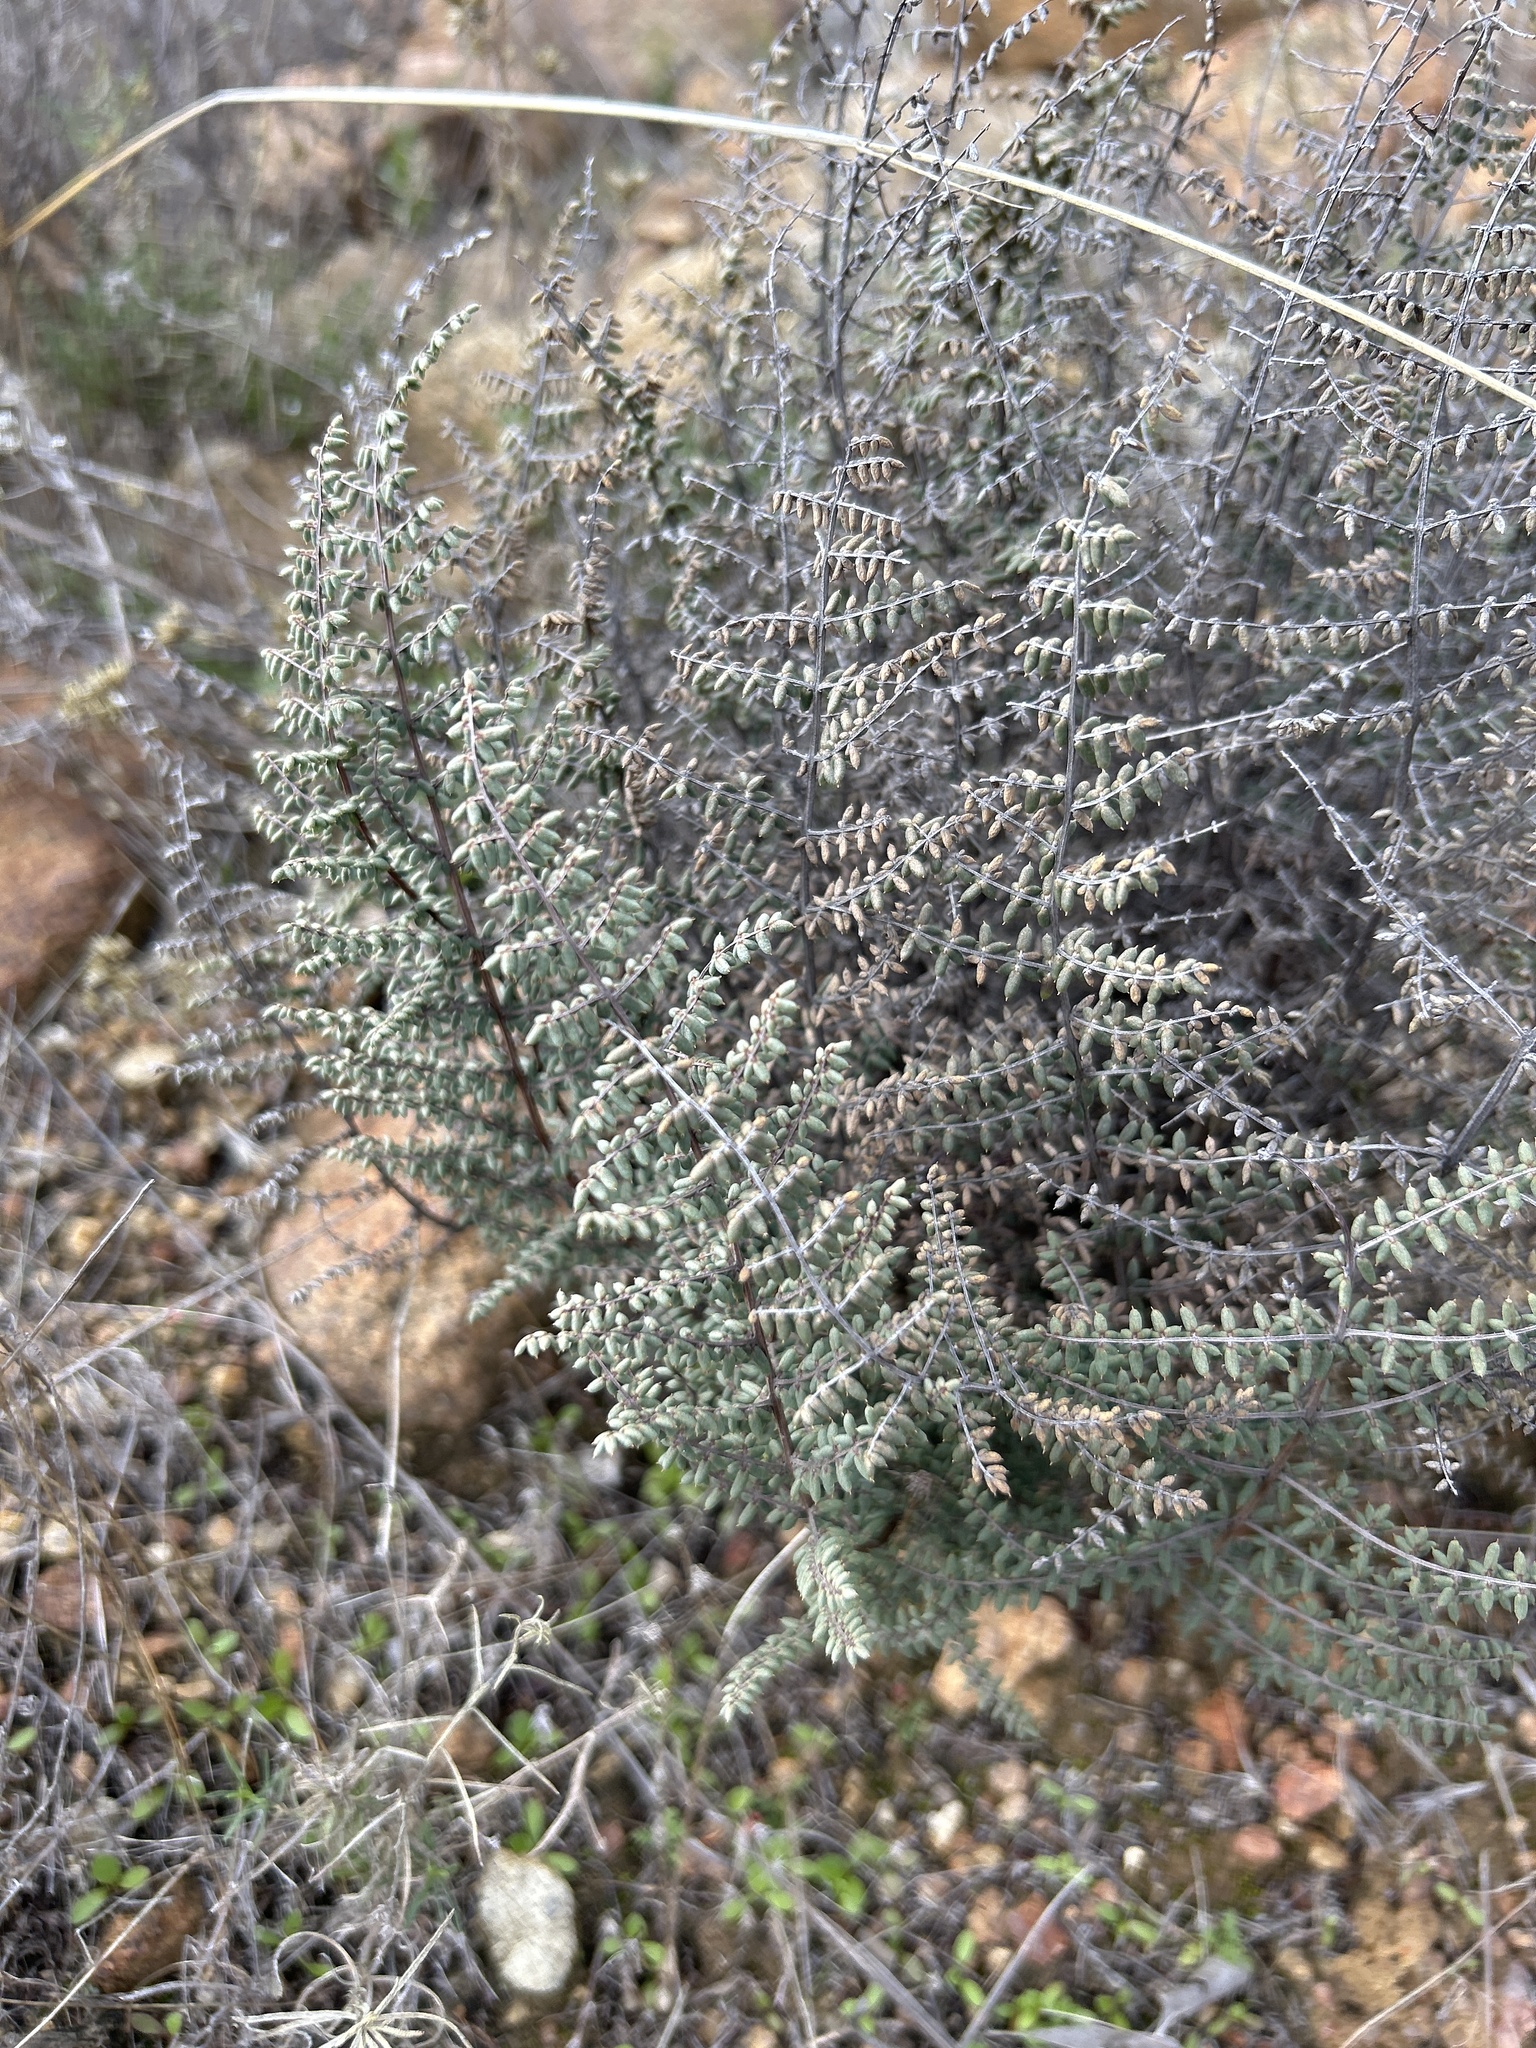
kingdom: Plantae
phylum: Tracheophyta
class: Polypodiopsida
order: Polypodiales
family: Pteridaceae
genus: Pellaea
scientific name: Pellaea mucronata
